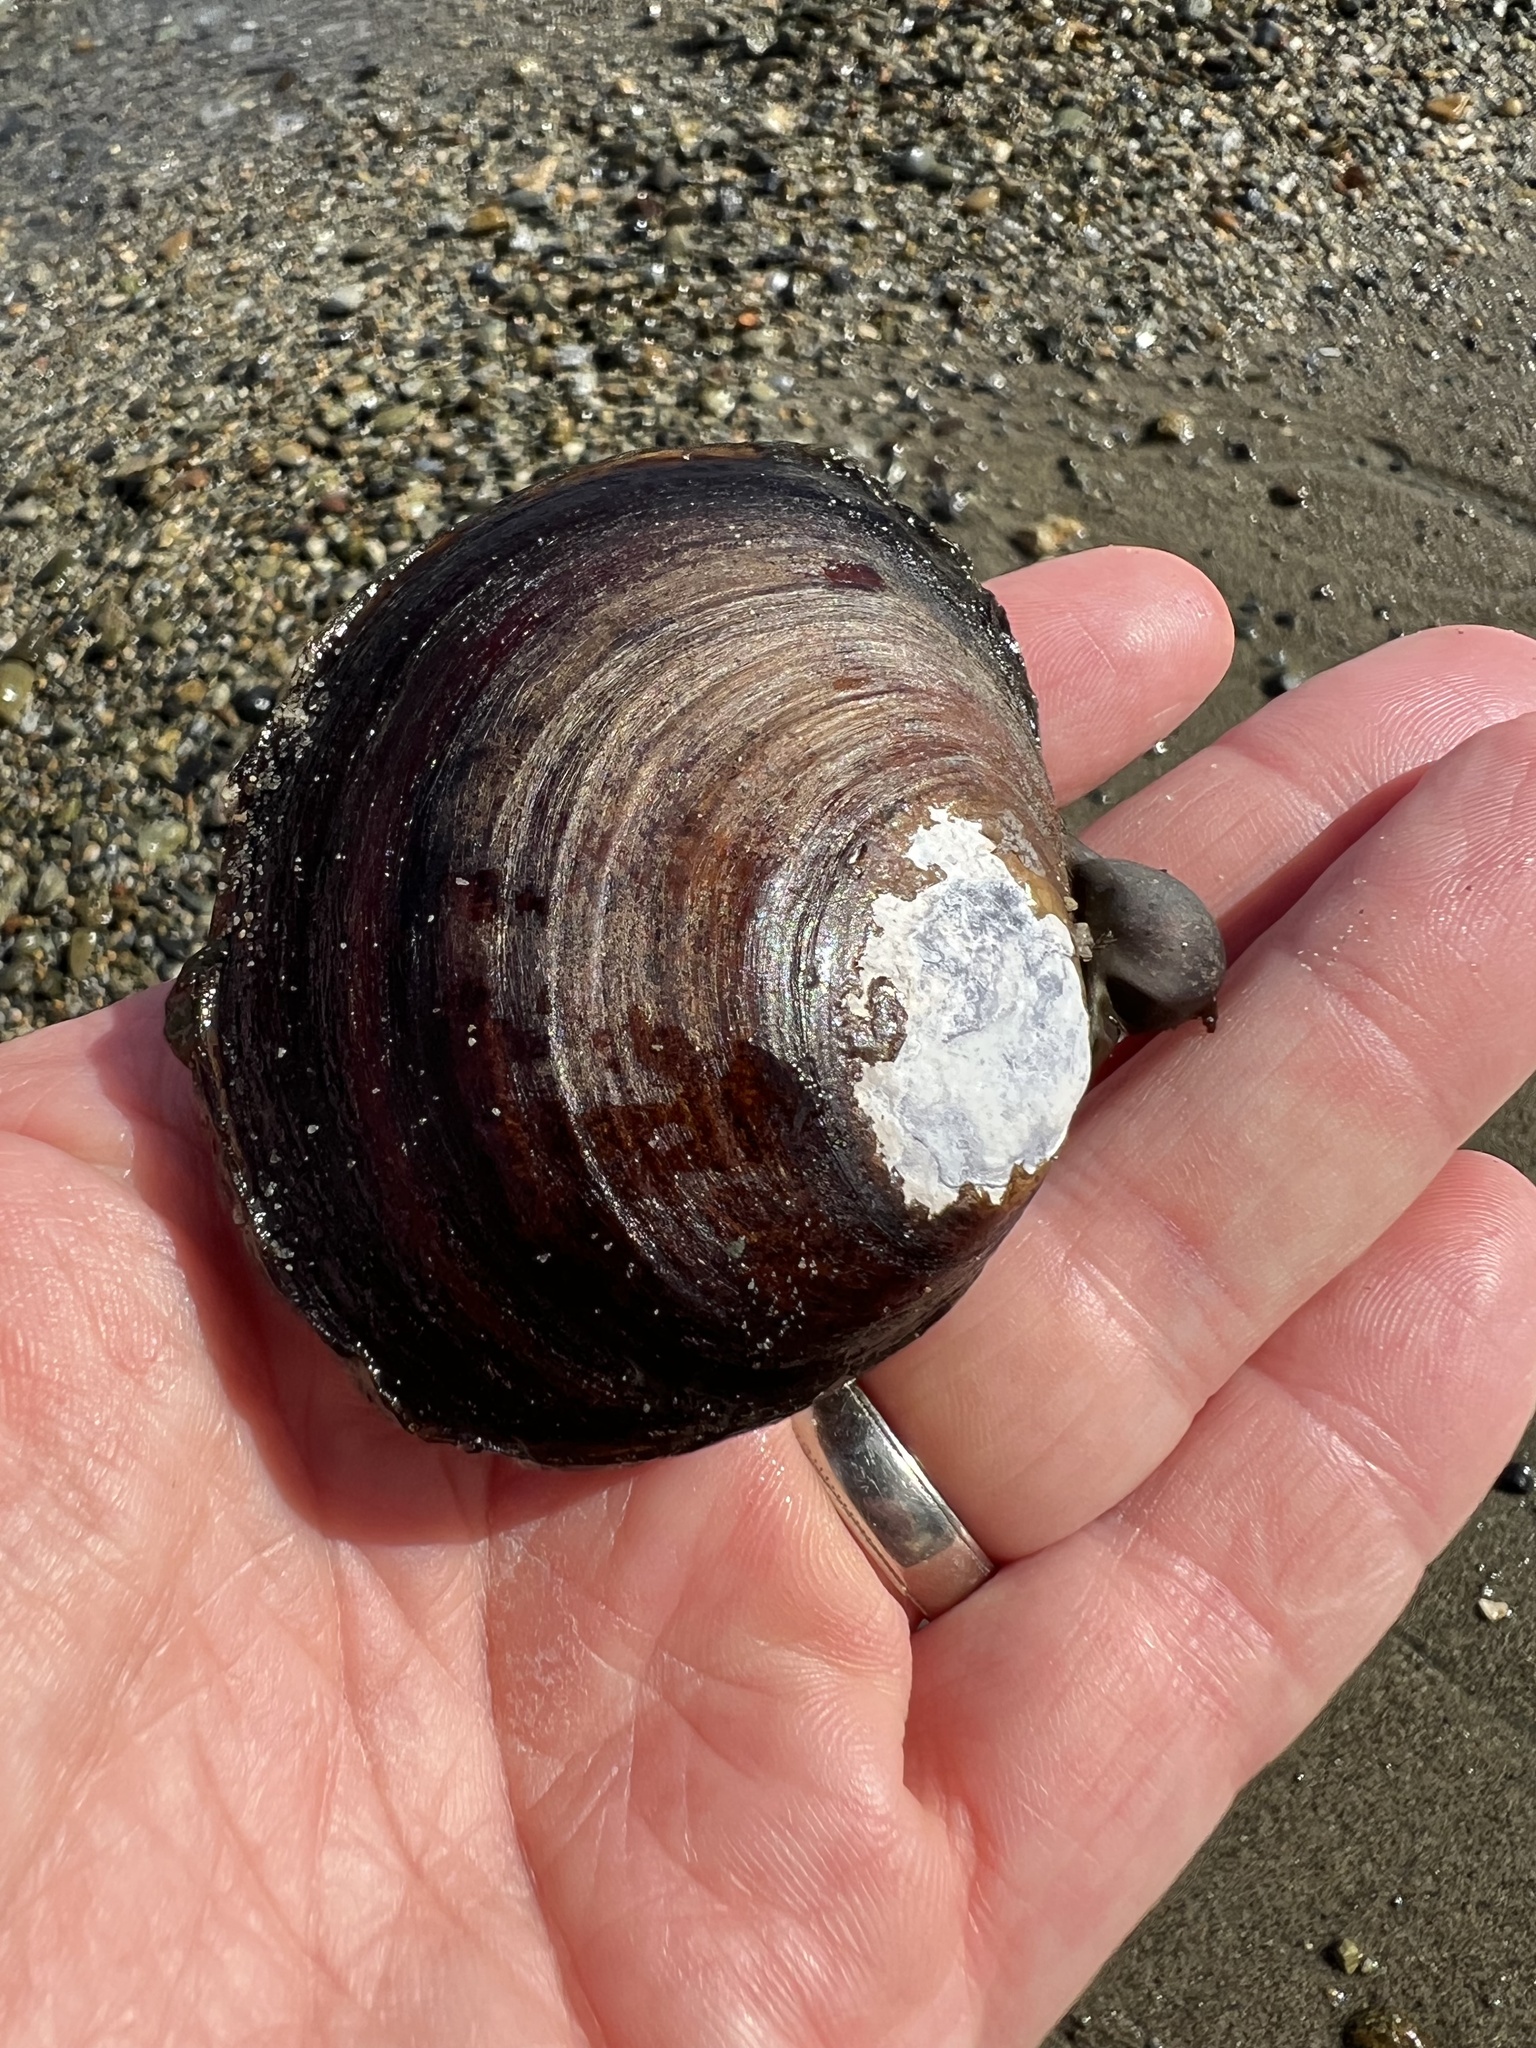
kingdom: Animalia
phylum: Mollusca
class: Bivalvia
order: Cardiida
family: Psammobiidae
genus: Nuttallia
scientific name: Nuttallia obscurata
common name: Purple mahogany-clam
